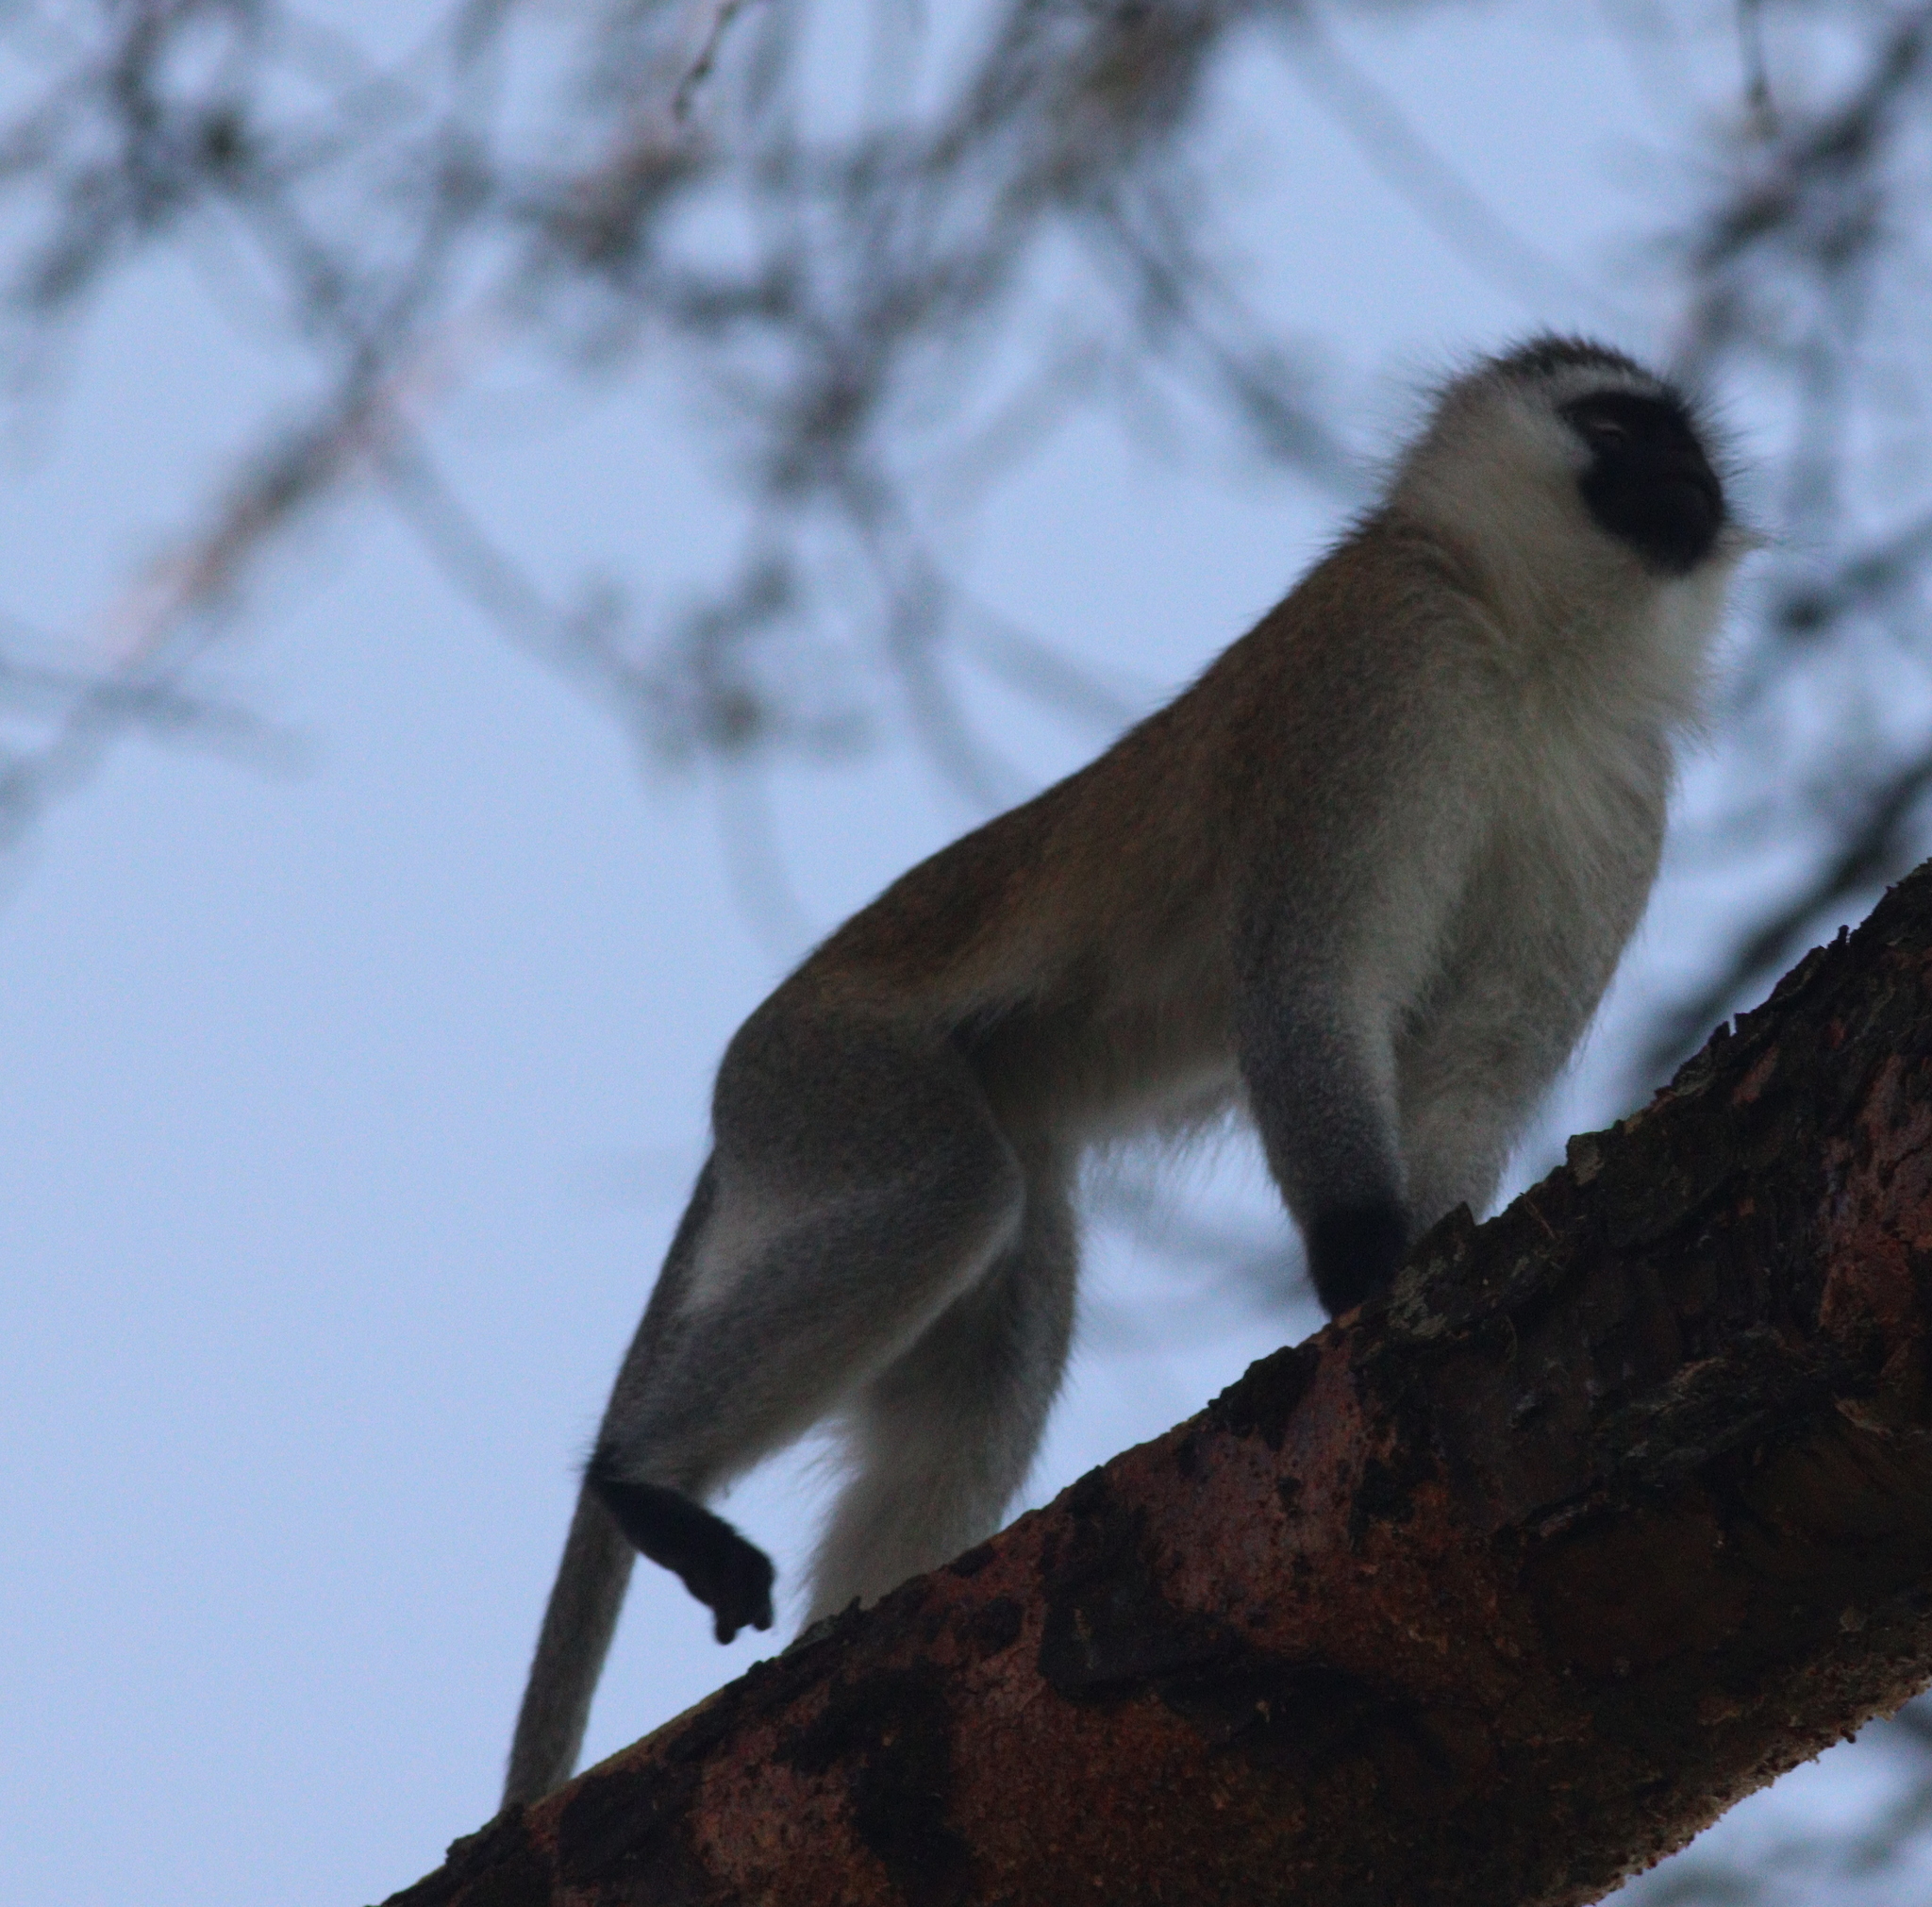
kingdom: Animalia
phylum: Chordata
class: Mammalia
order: Primates
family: Cercopithecidae
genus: Chlorocebus
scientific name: Chlorocebus pygerythrus
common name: Vervet monkey
